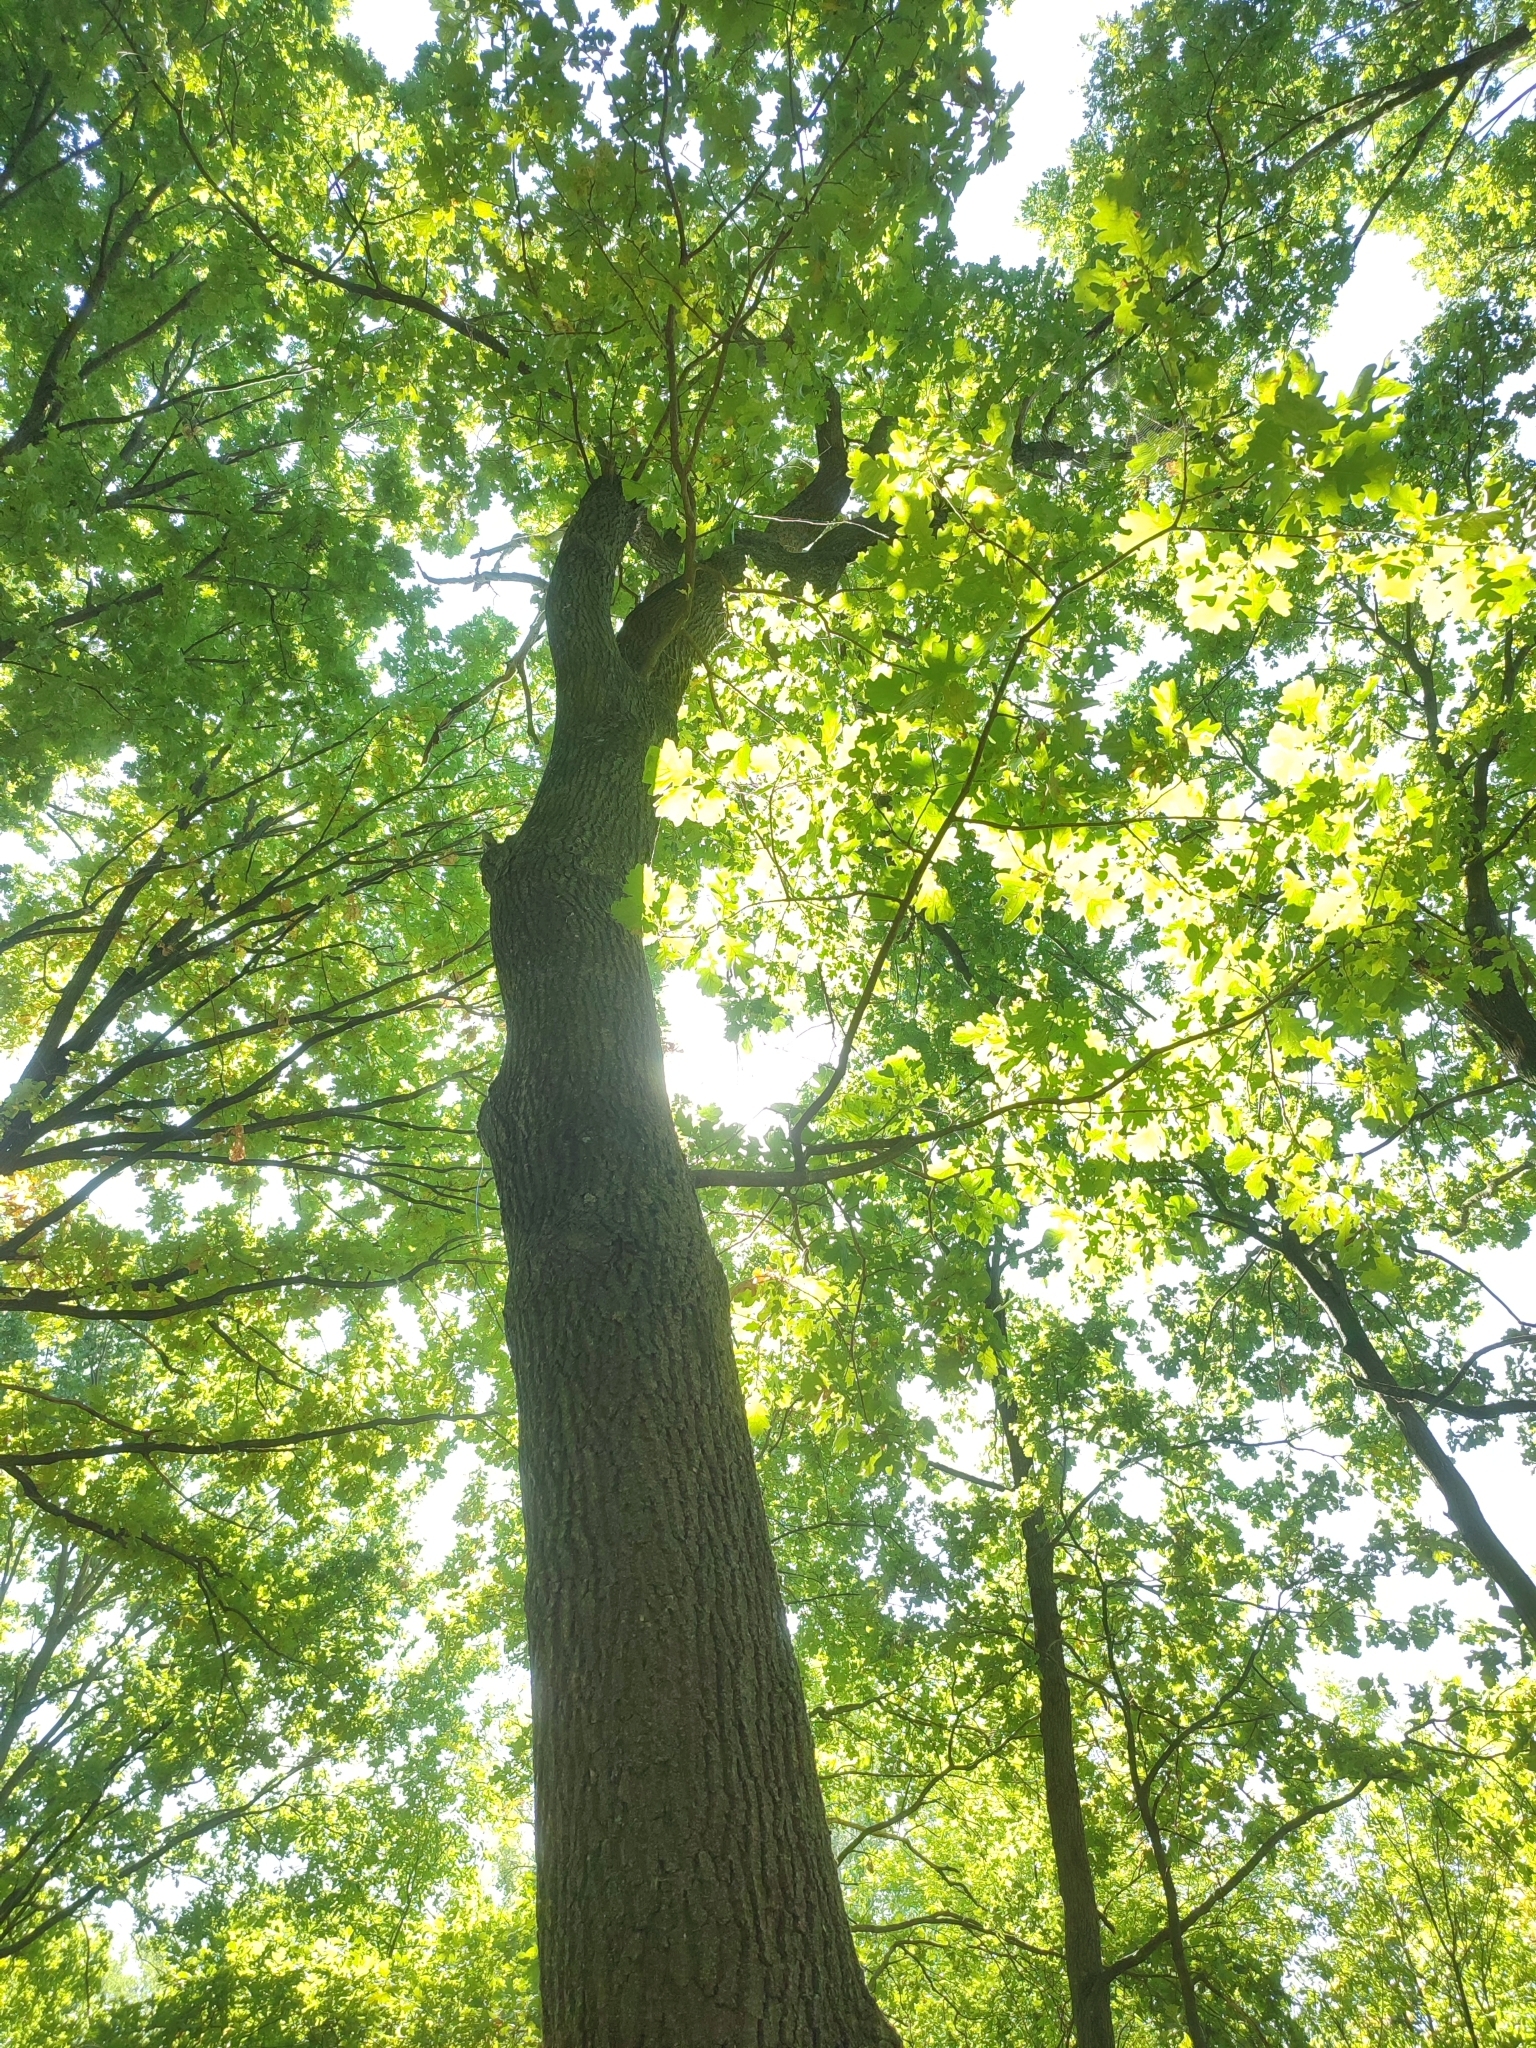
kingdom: Plantae
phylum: Tracheophyta
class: Magnoliopsida
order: Fagales
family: Fagaceae
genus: Quercus
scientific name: Quercus robur
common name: Pedunculate oak
